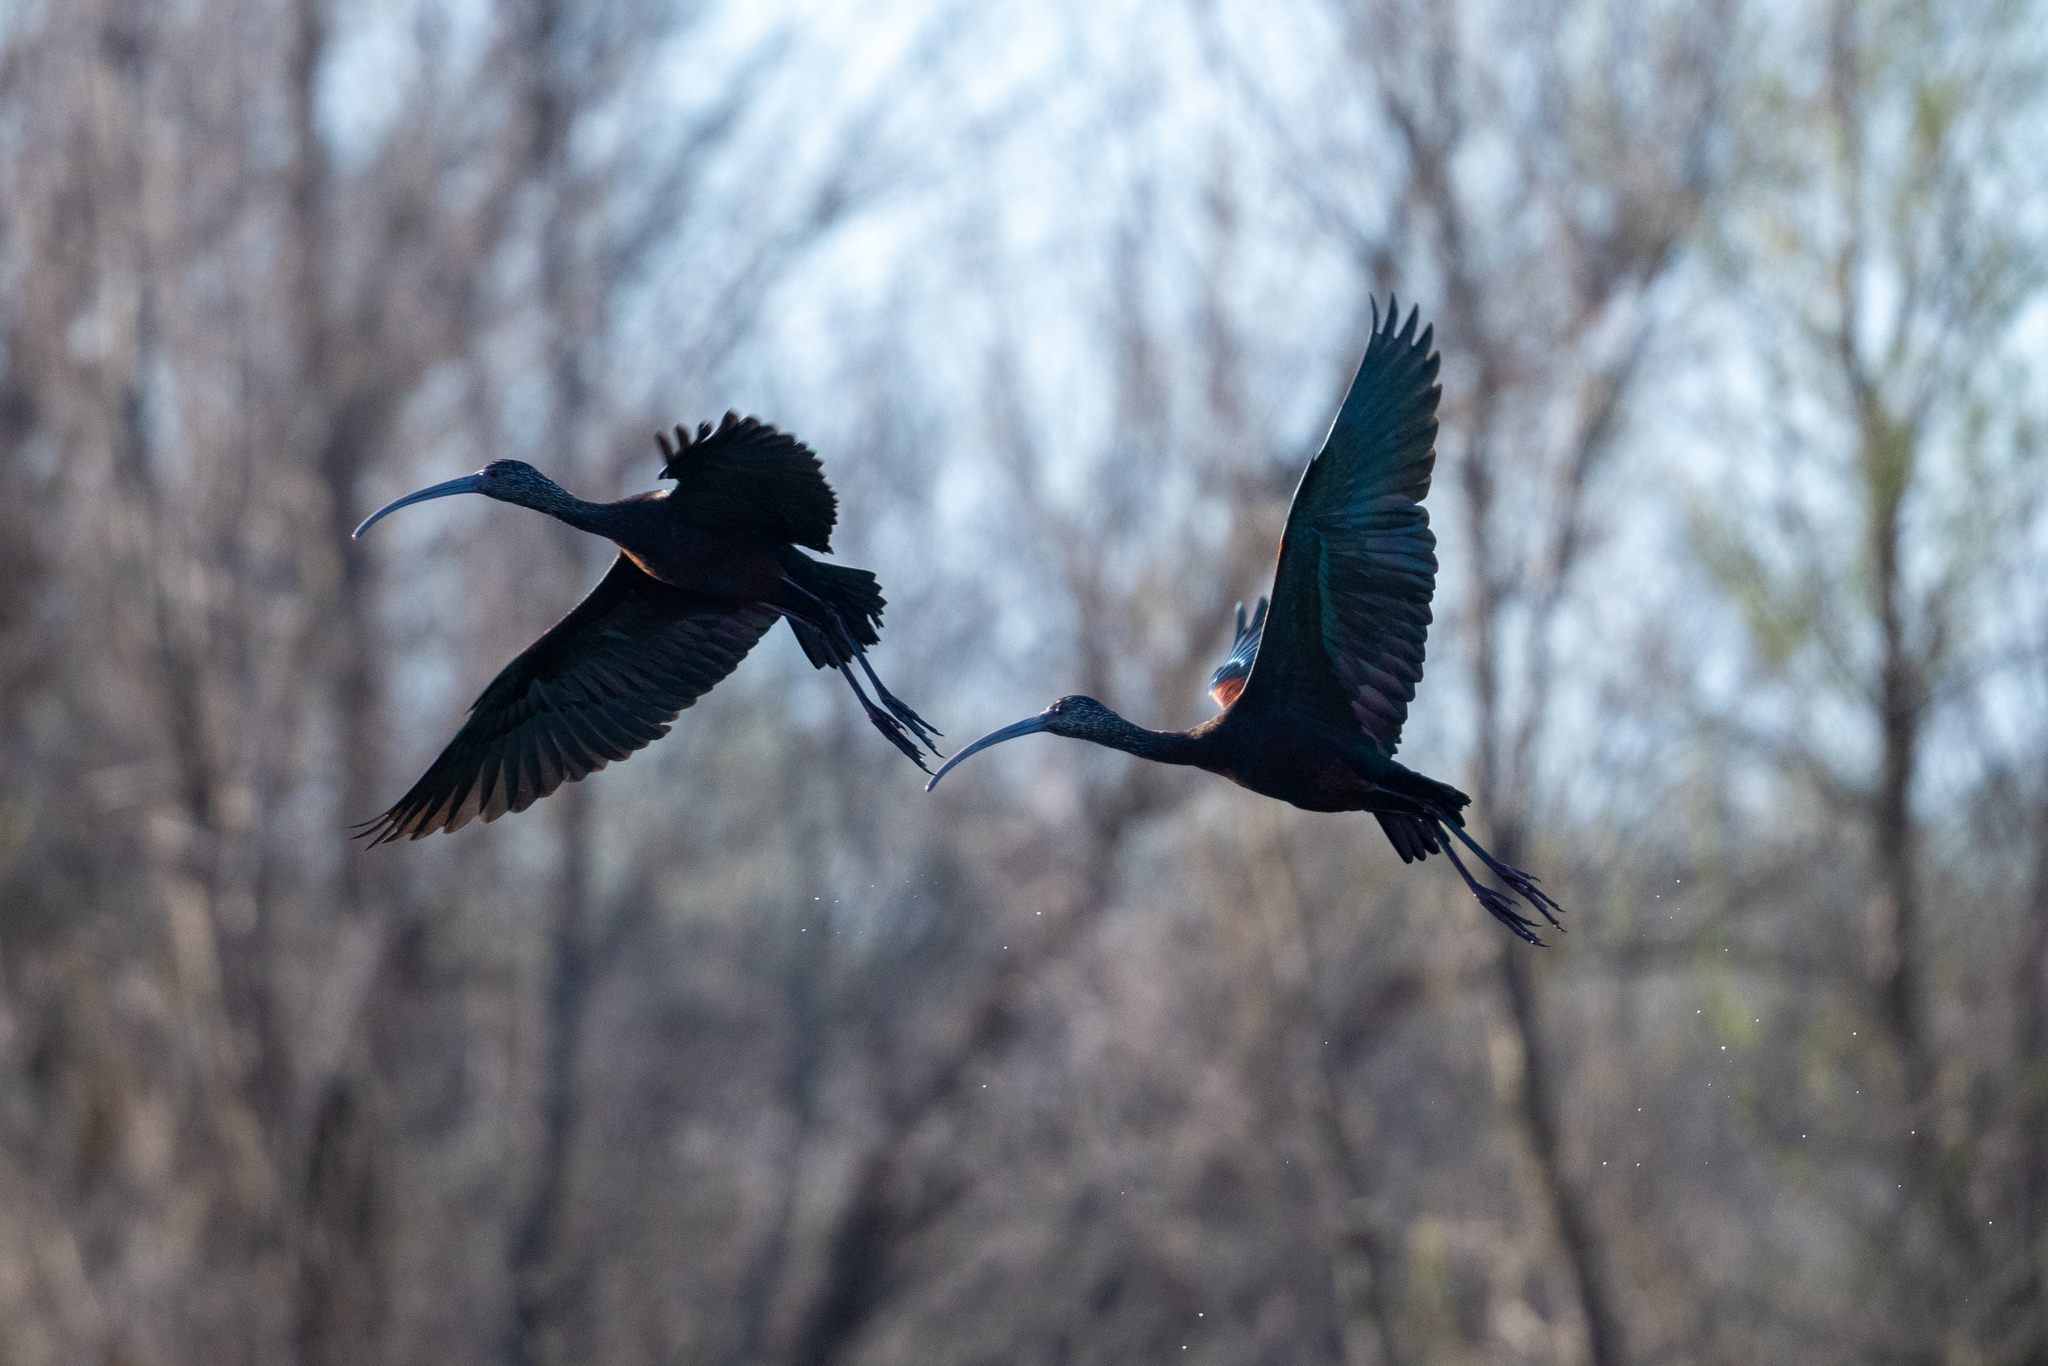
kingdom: Animalia
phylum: Chordata
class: Aves
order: Pelecaniformes
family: Threskiornithidae
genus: Plegadis
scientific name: Plegadis chihi
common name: White-faced ibis
